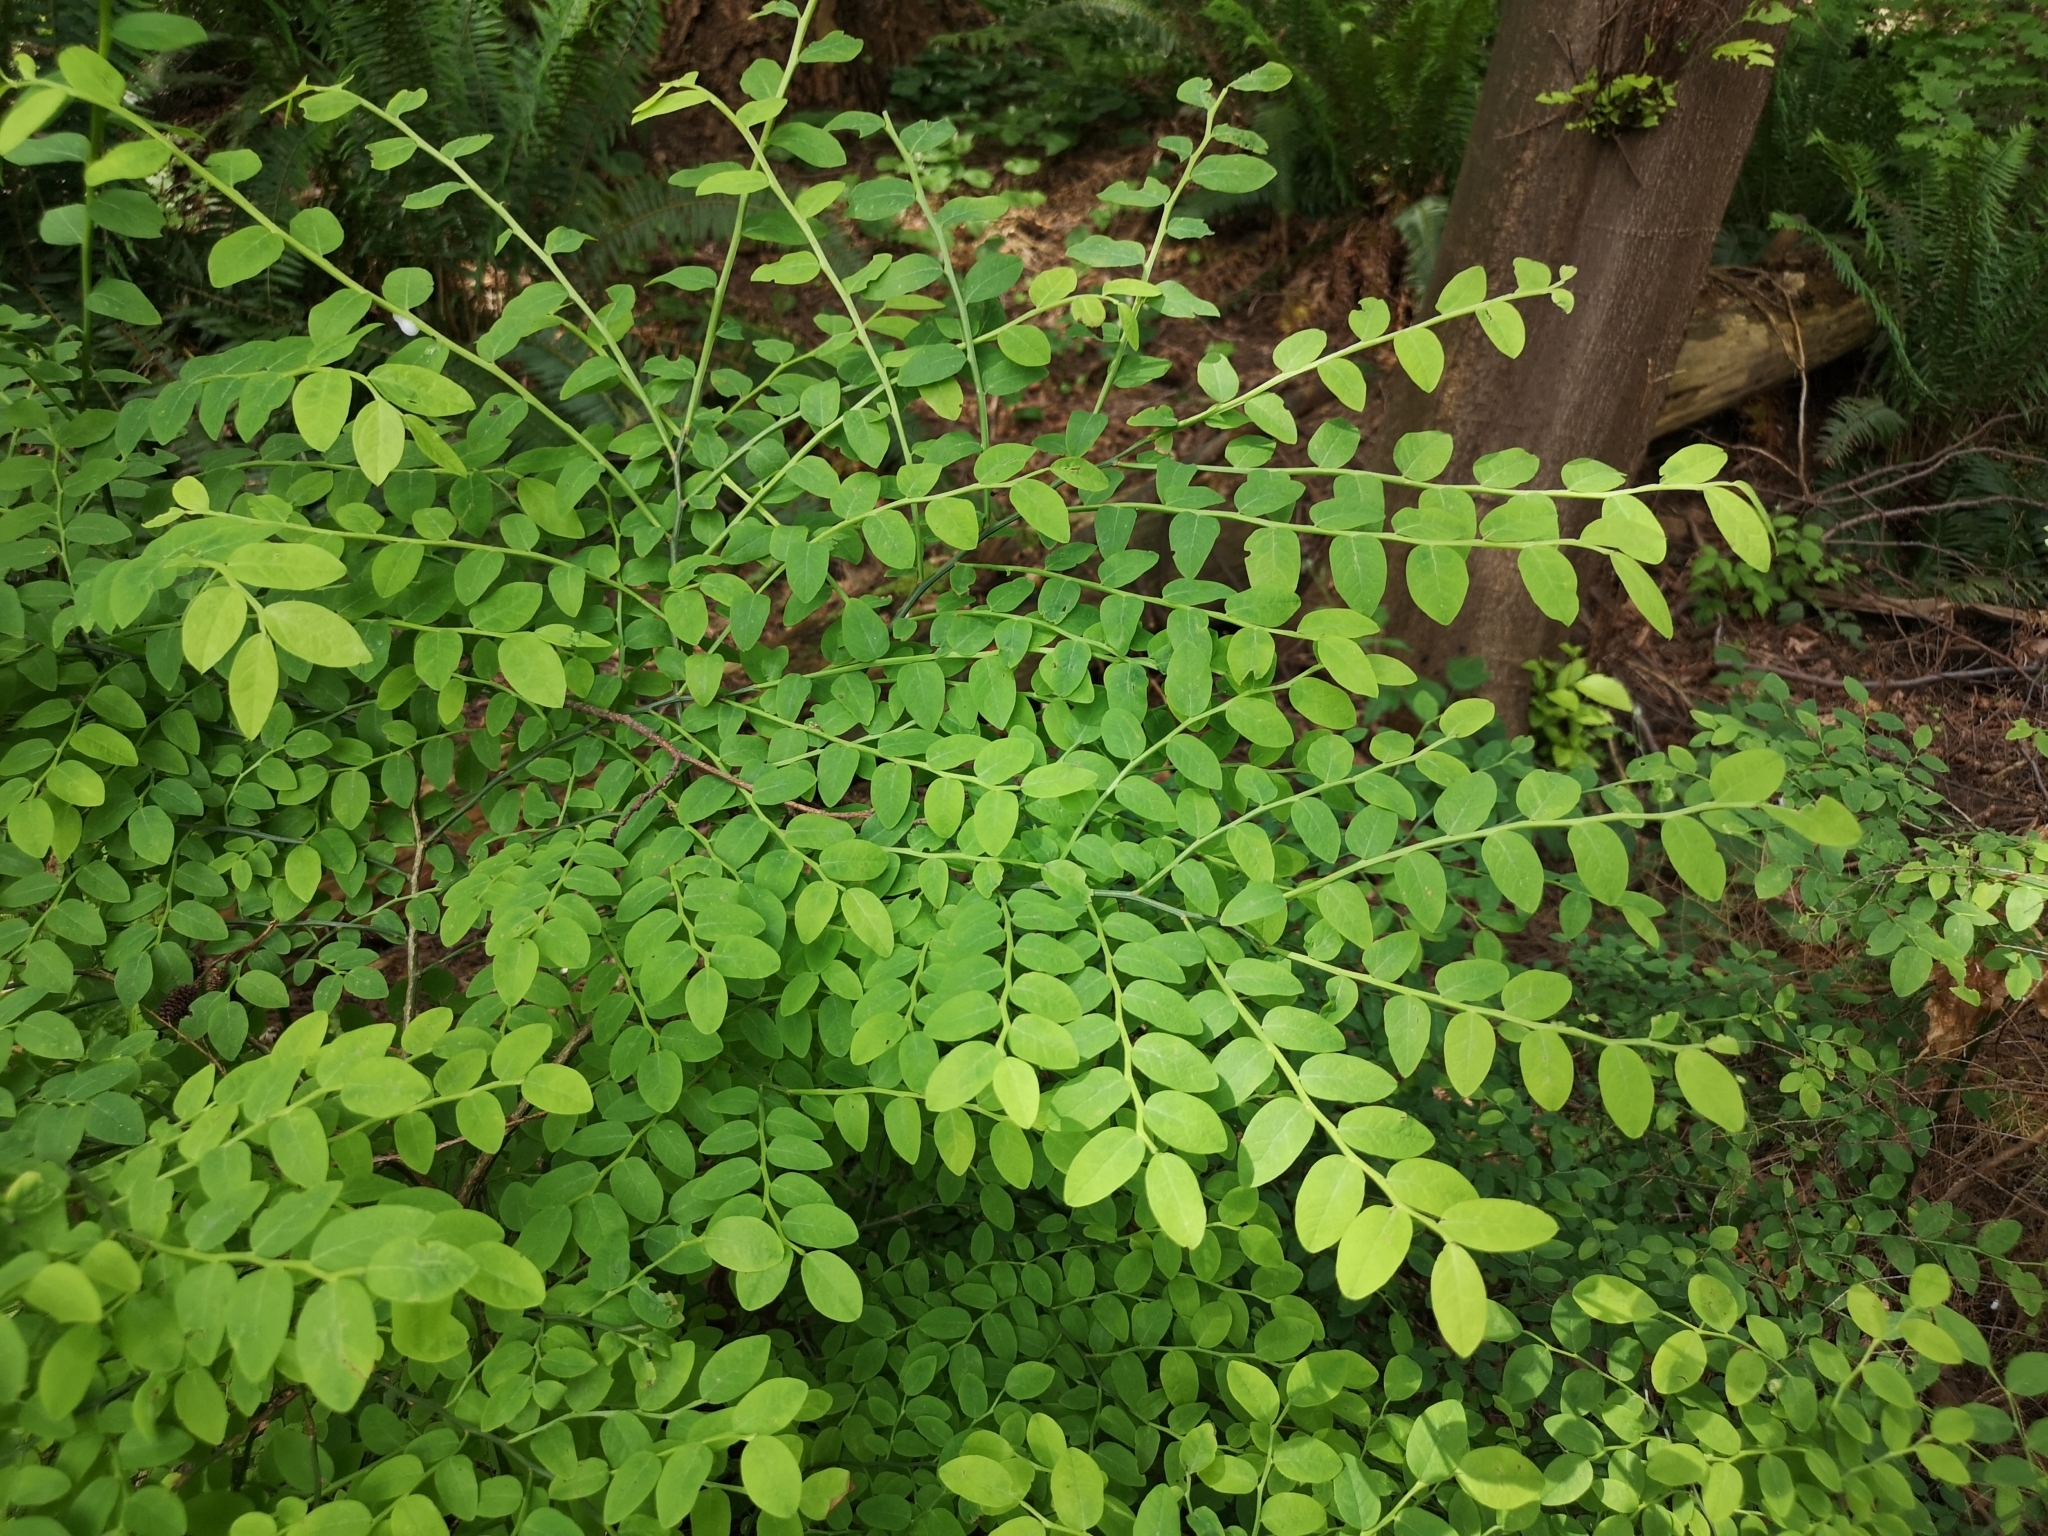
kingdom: Plantae
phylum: Tracheophyta
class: Magnoliopsida
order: Ericales
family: Ericaceae
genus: Vaccinium
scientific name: Vaccinium parvifolium
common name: Red-huckleberry
